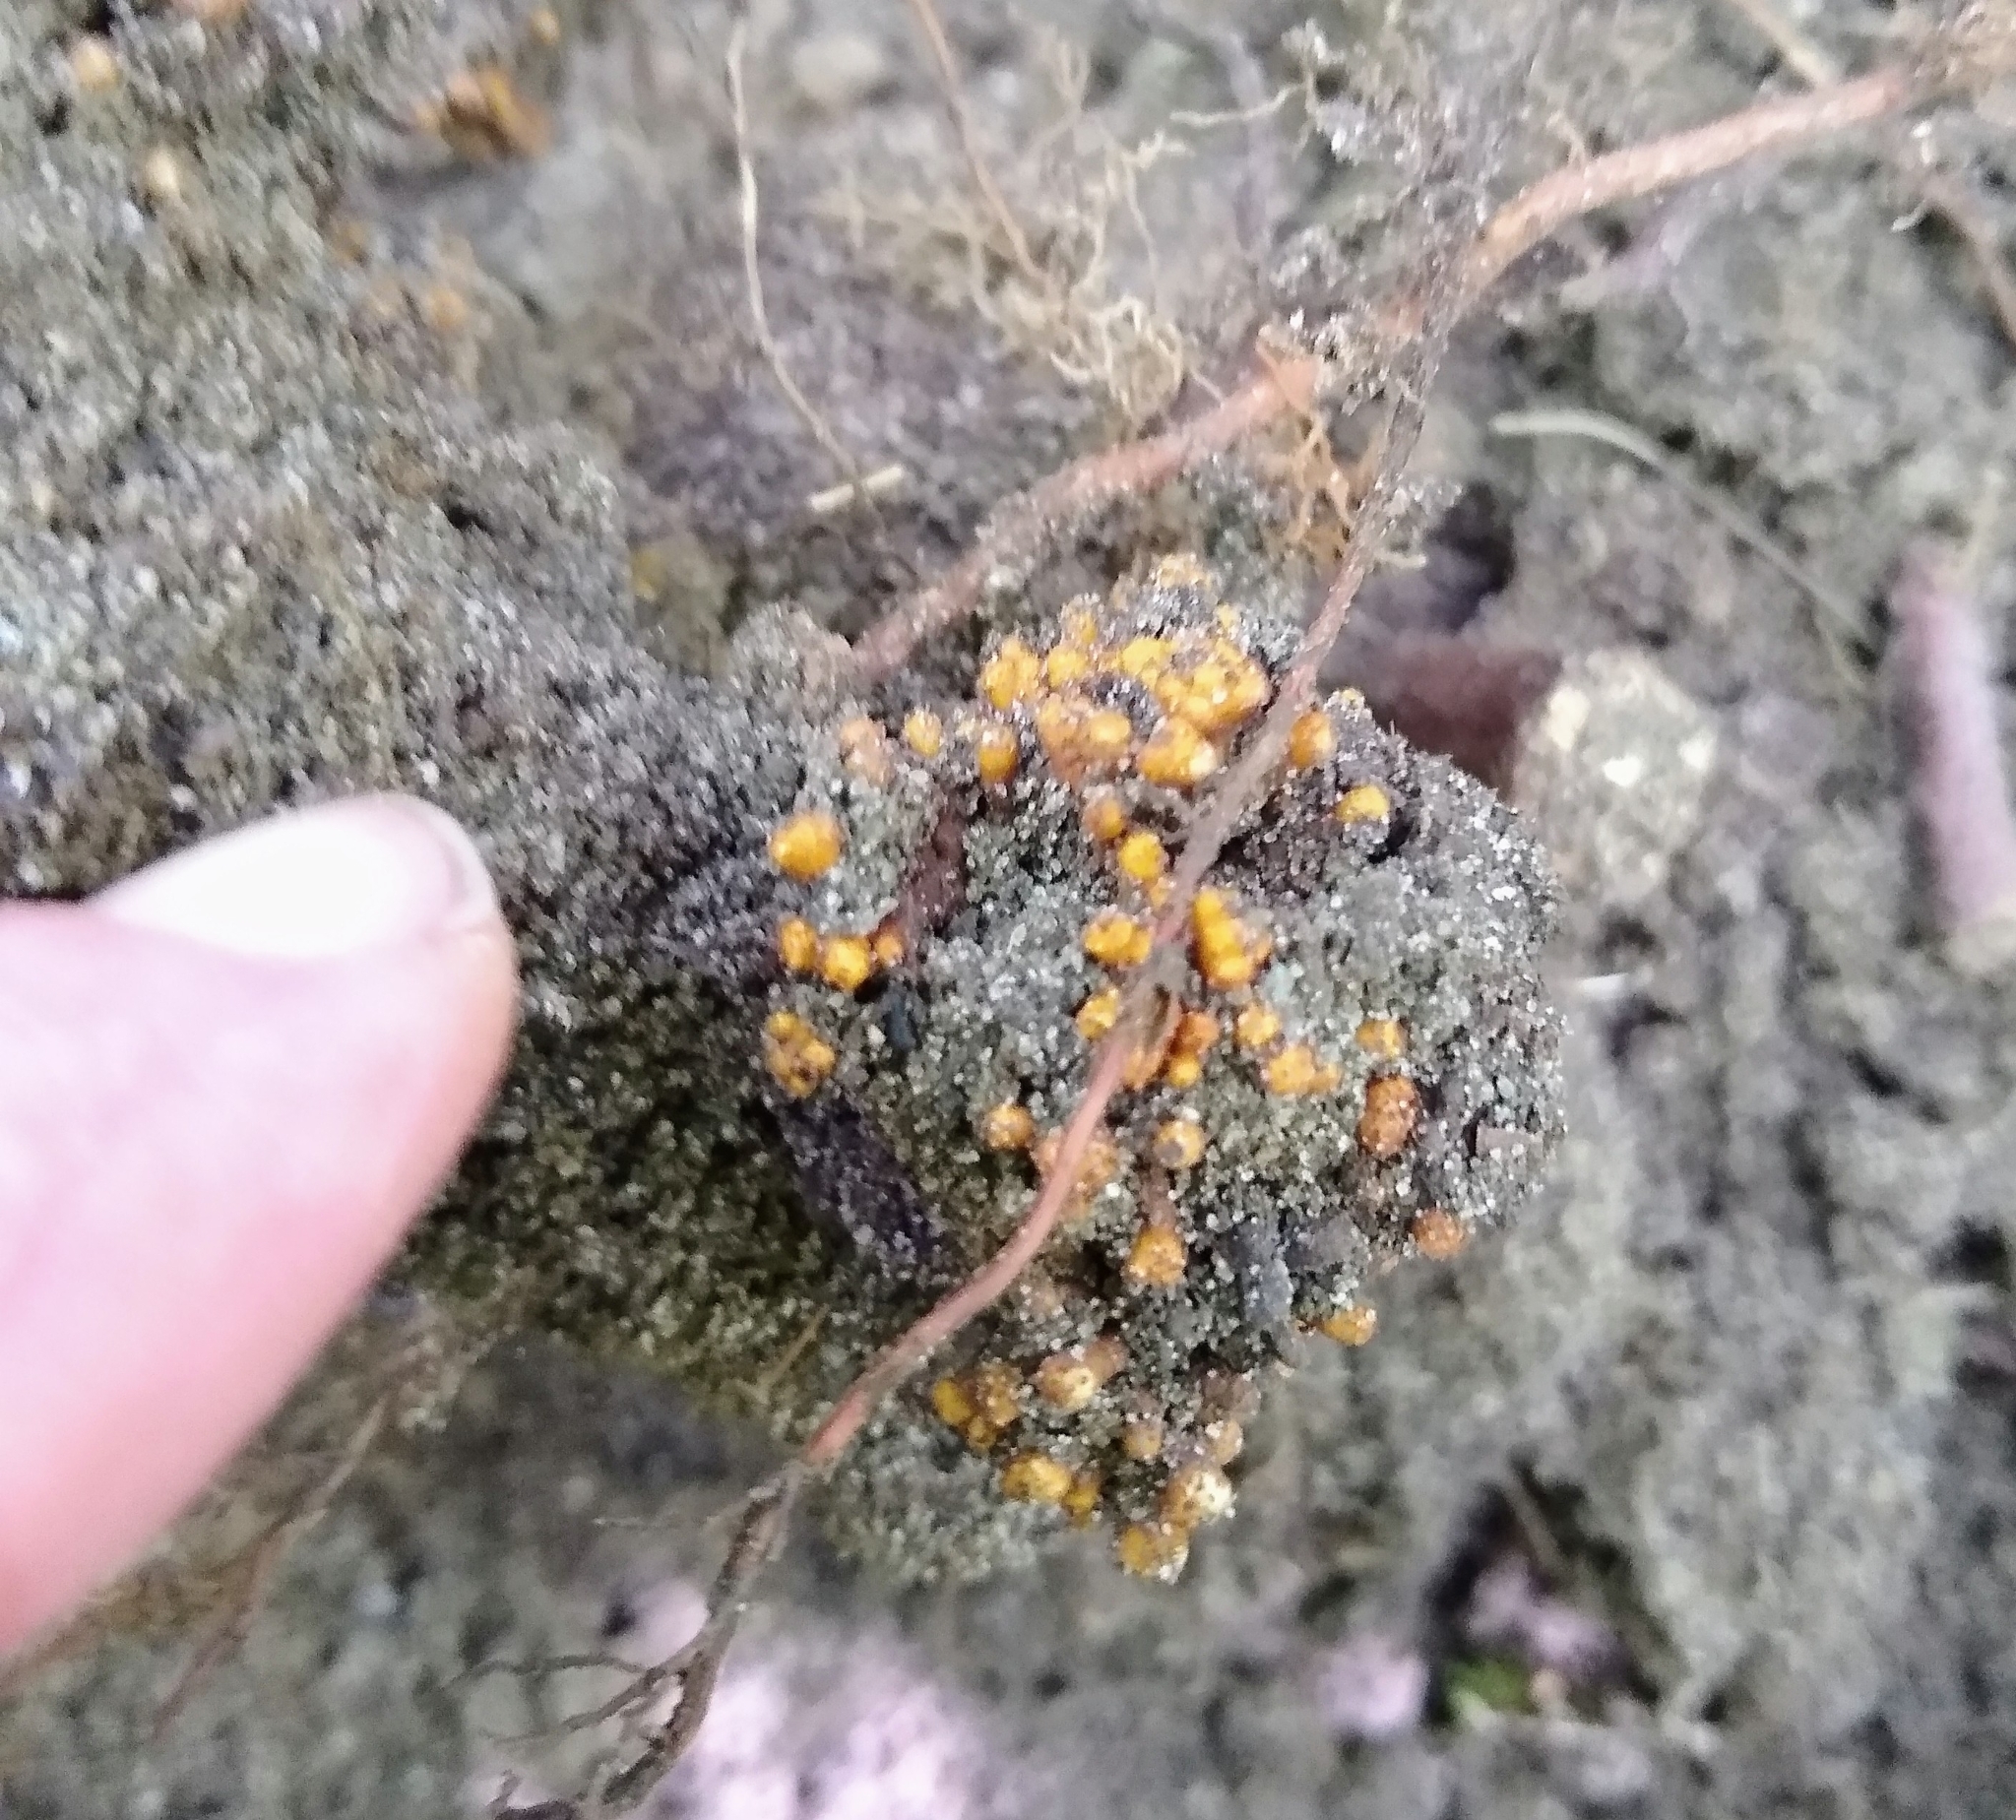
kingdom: Bacteria
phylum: Actinobacteriota
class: Actinomycetia
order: Mycobacteriales
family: Frankiaceae
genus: Frankia
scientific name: Frankia alni
